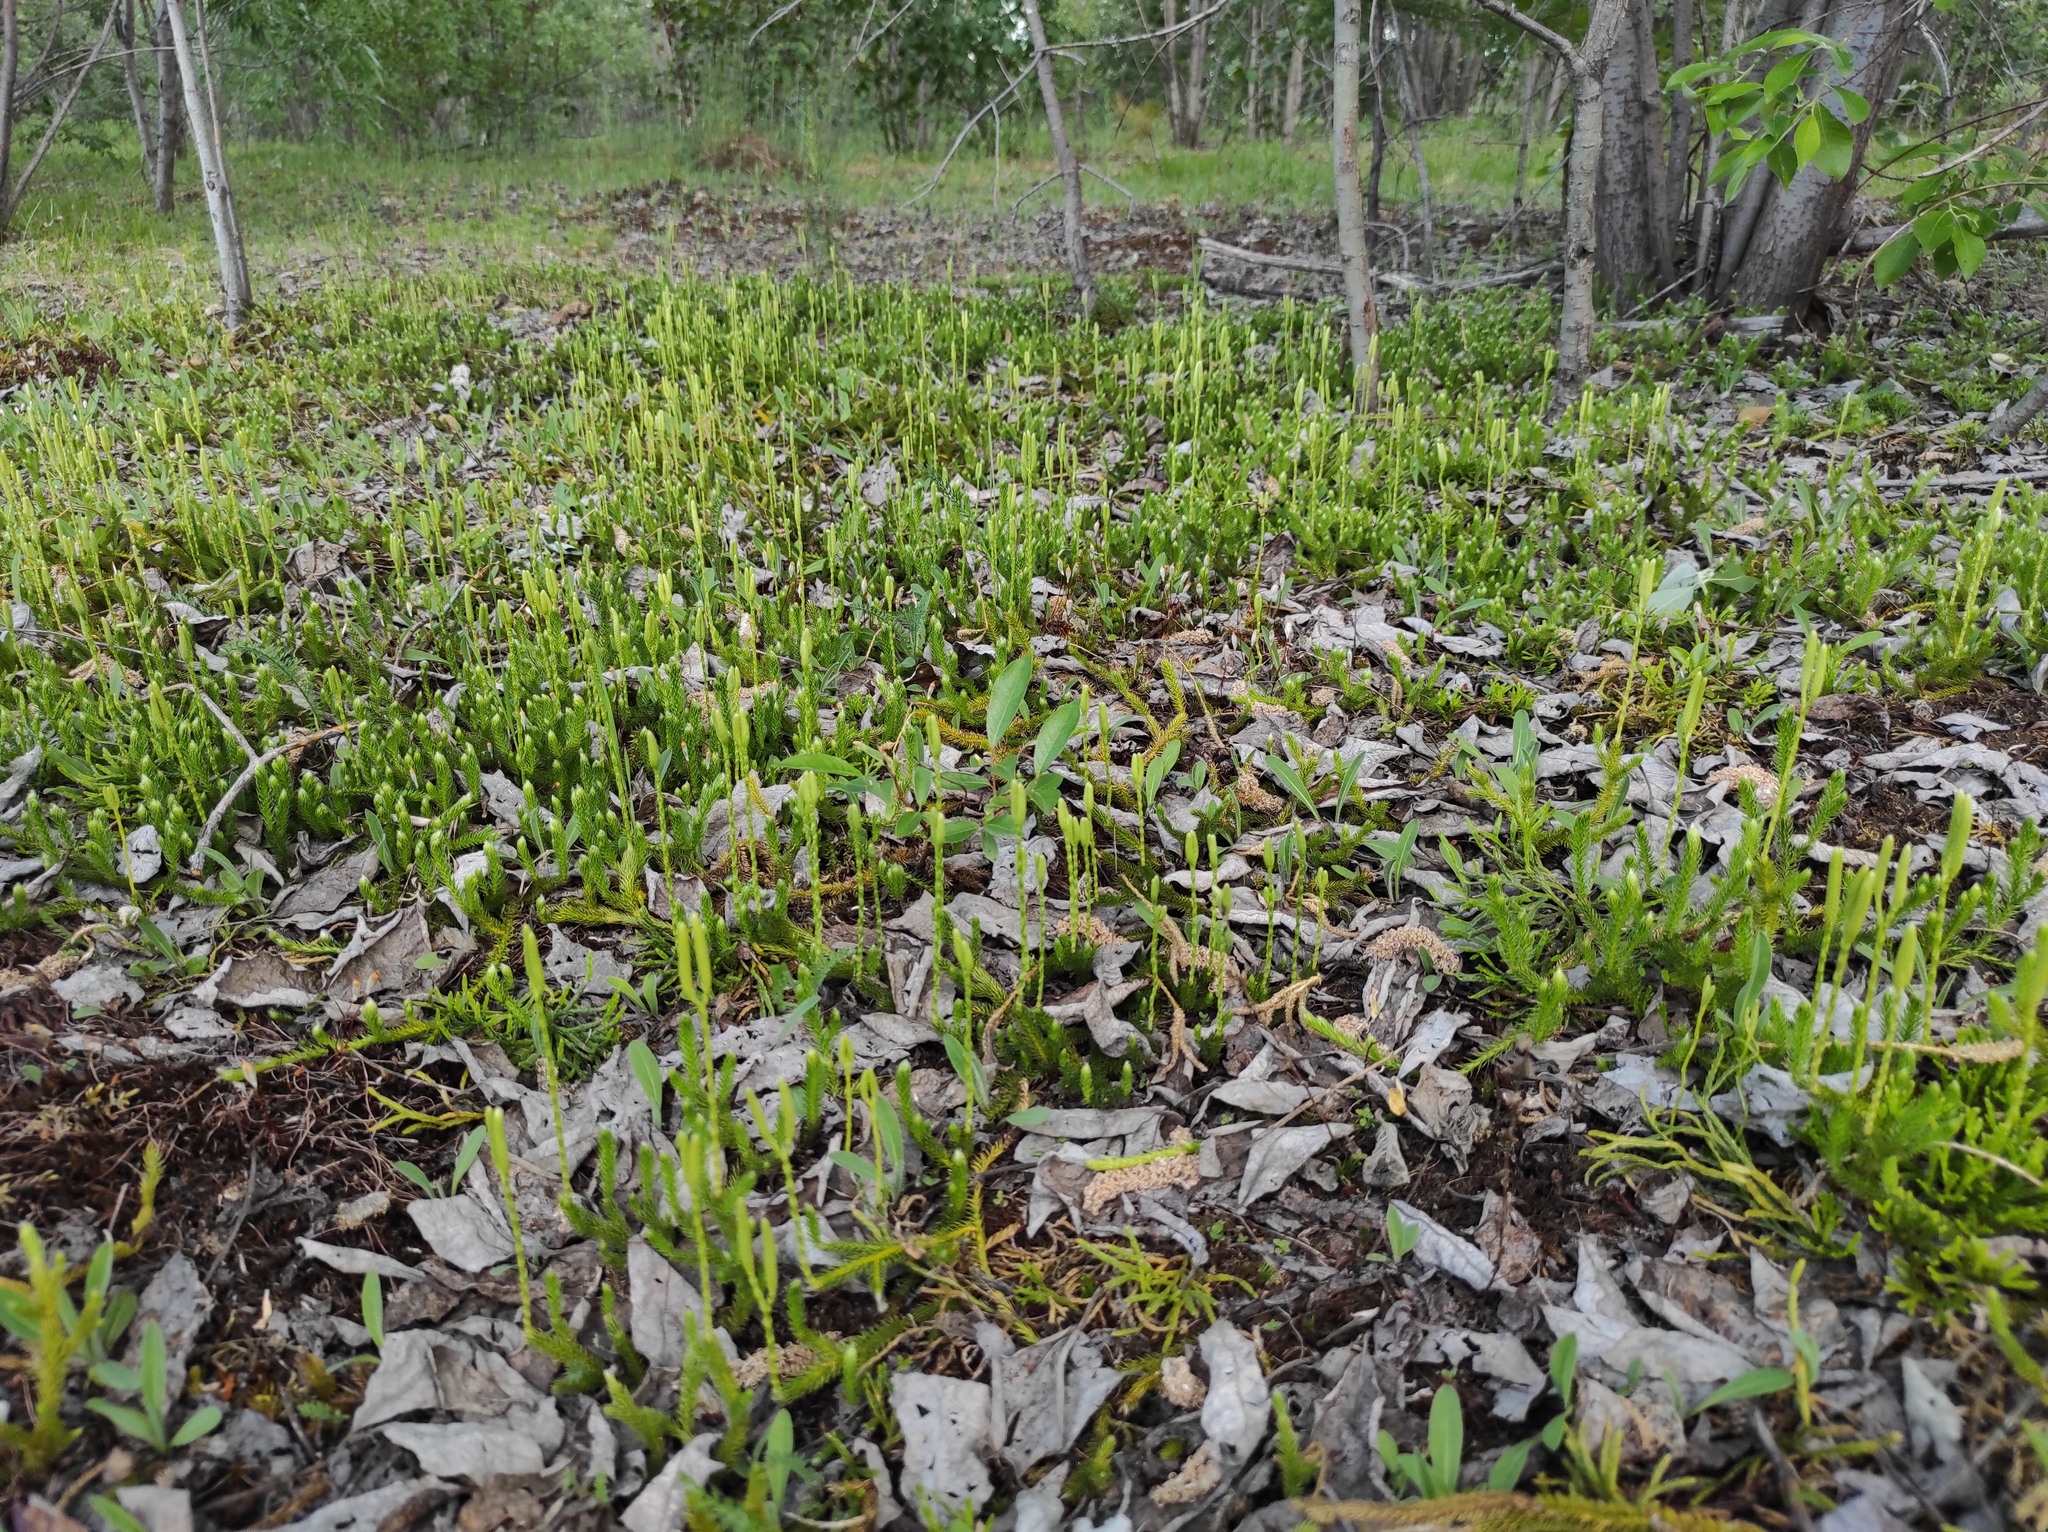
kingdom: Plantae
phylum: Tracheophyta
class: Lycopodiopsida
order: Lycopodiales
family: Lycopodiaceae
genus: Diphasiastrum
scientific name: Diphasiastrum complanatum
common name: Northern running-pine
